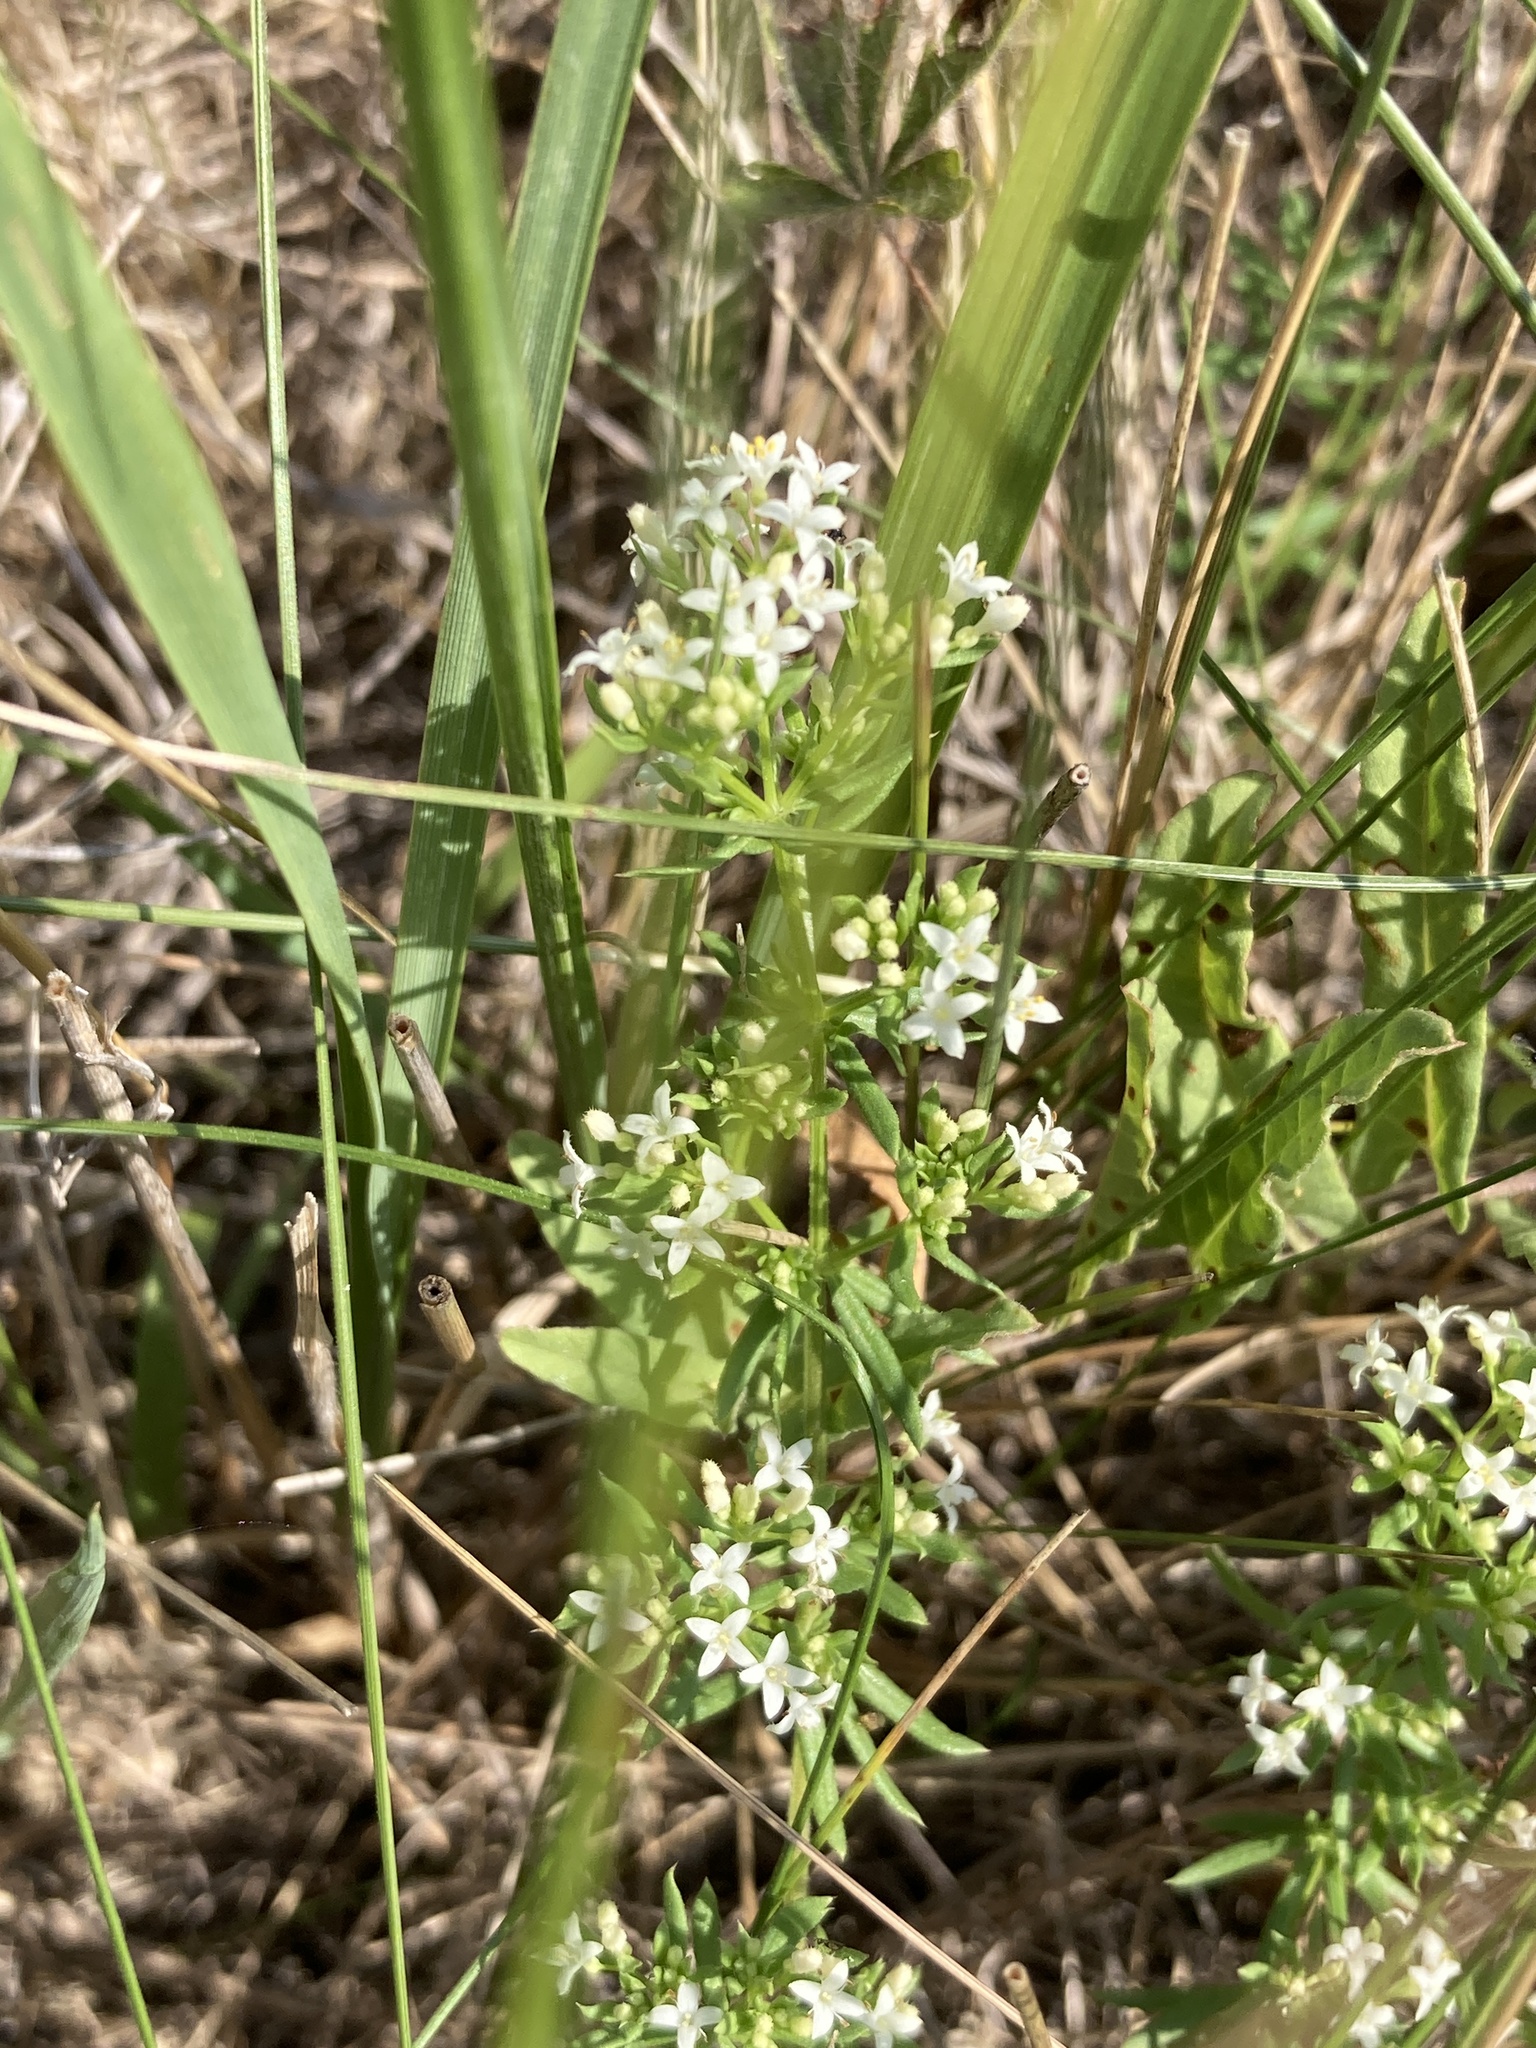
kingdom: Plantae
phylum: Tracheophyta
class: Magnoliopsida
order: Gentianales
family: Rubiaceae
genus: Galium
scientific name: Galium humifusum
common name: Spreading bedstraw
